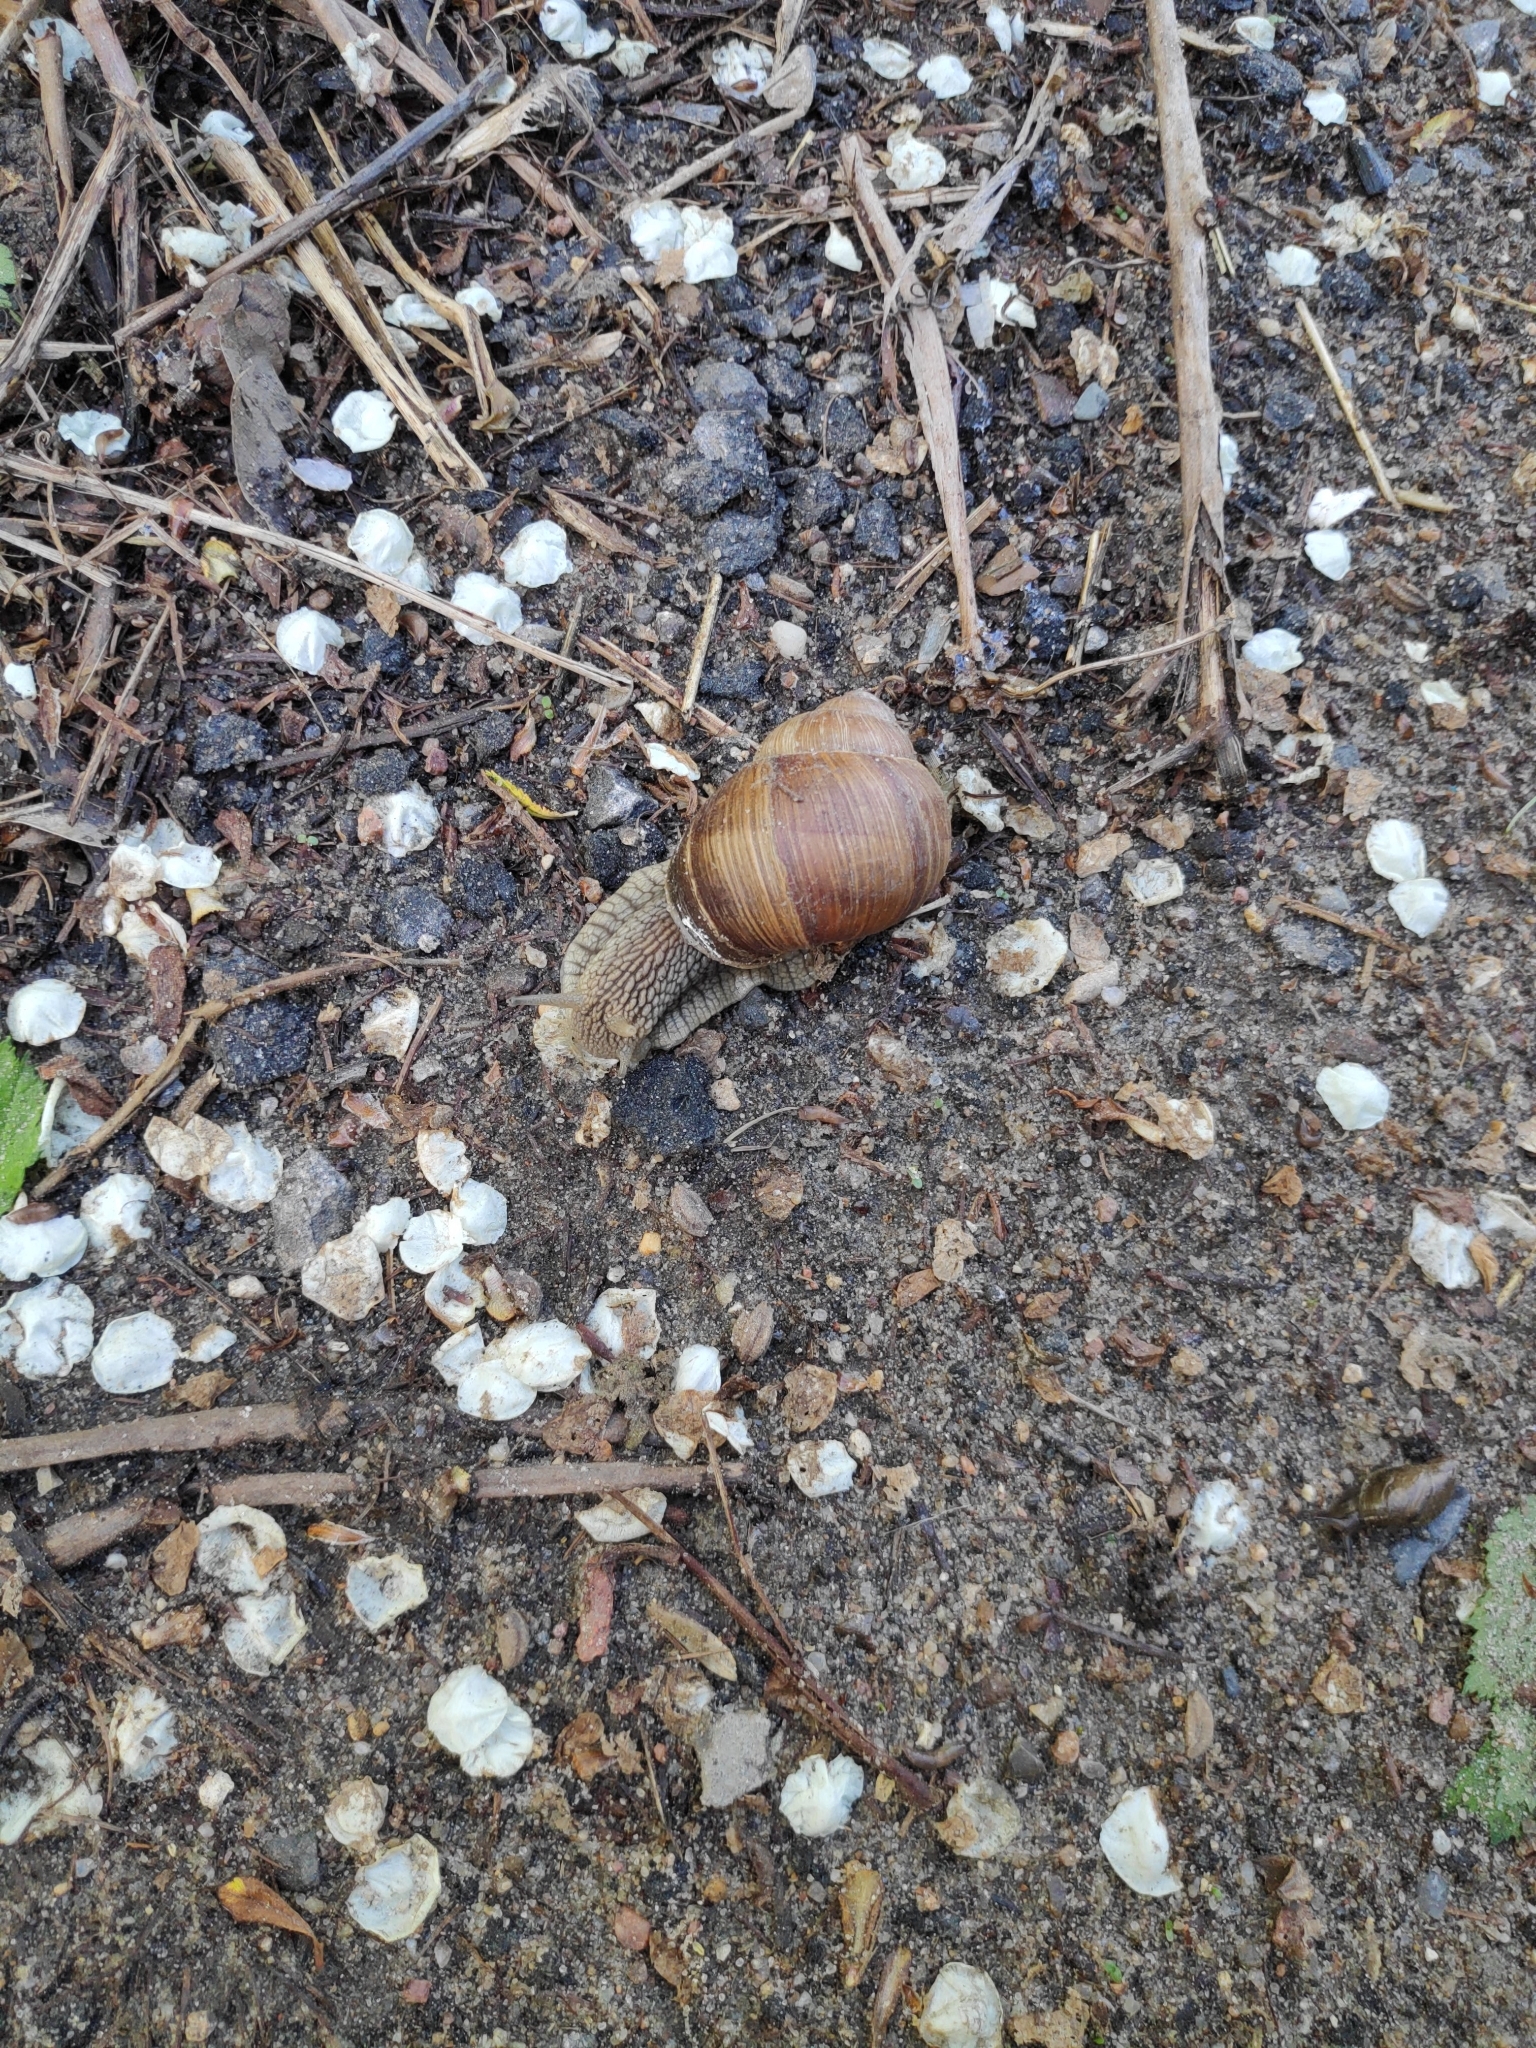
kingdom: Animalia
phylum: Mollusca
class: Gastropoda
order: Stylommatophora
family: Helicidae
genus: Helix
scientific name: Helix pomatia
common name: Roman snail
